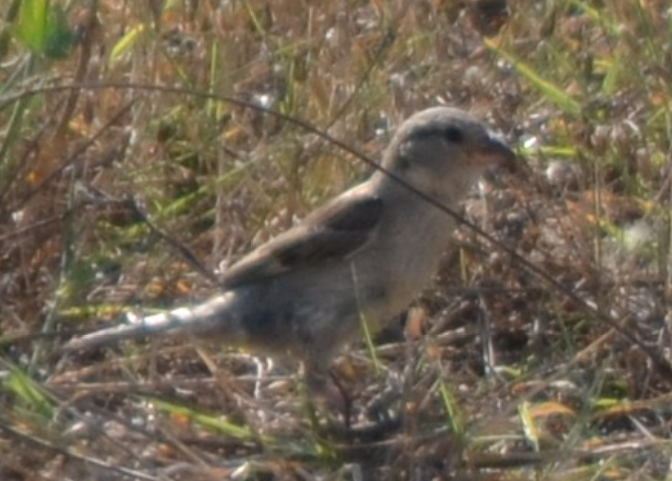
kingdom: Animalia
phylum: Chordata
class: Aves
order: Passeriformes
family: Passeridae
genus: Passer
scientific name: Passer domesticus
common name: House sparrow
